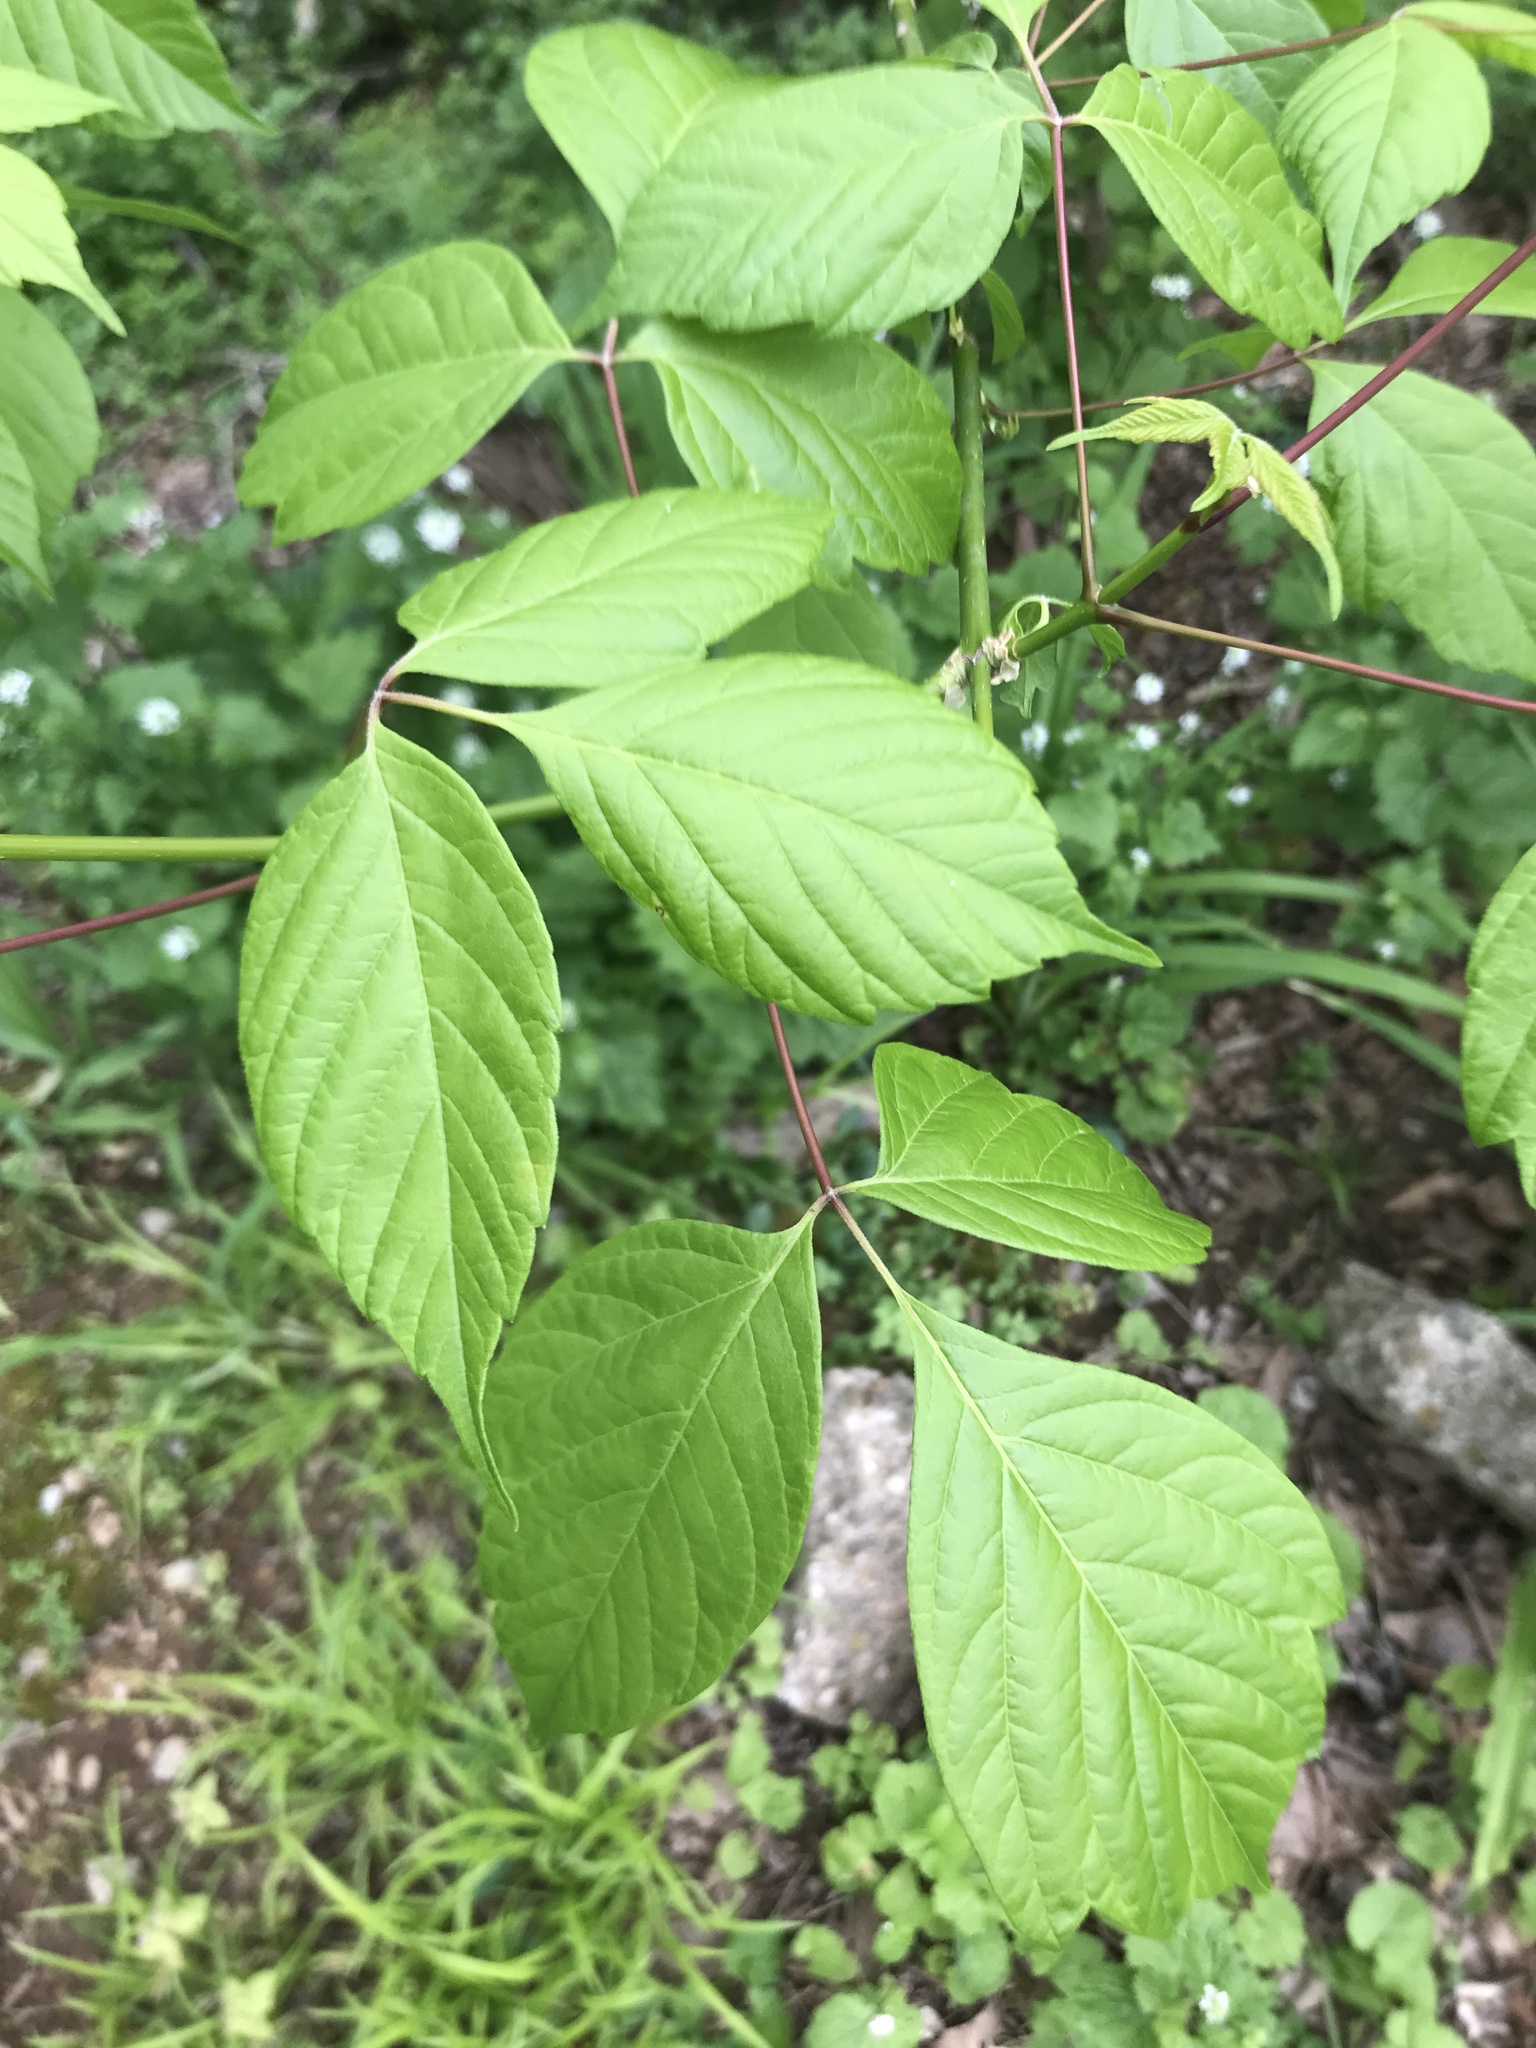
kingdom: Plantae
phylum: Tracheophyta
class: Magnoliopsida
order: Sapindales
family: Sapindaceae
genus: Acer
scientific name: Acer negundo
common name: Ashleaf maple
